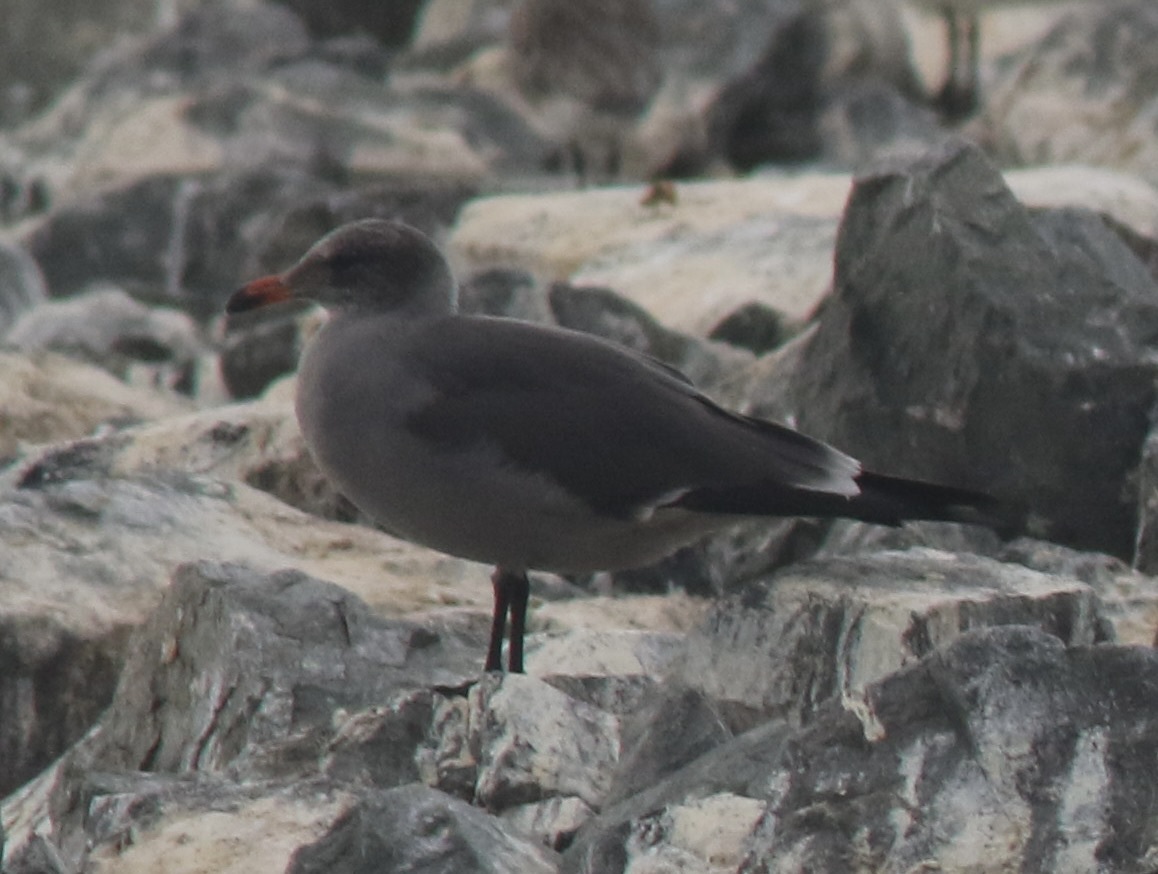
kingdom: Animalia
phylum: Chordata
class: Aves
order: Charadriiformes
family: Laridae
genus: Larus
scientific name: Larus heermanni
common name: Heermann's gull
